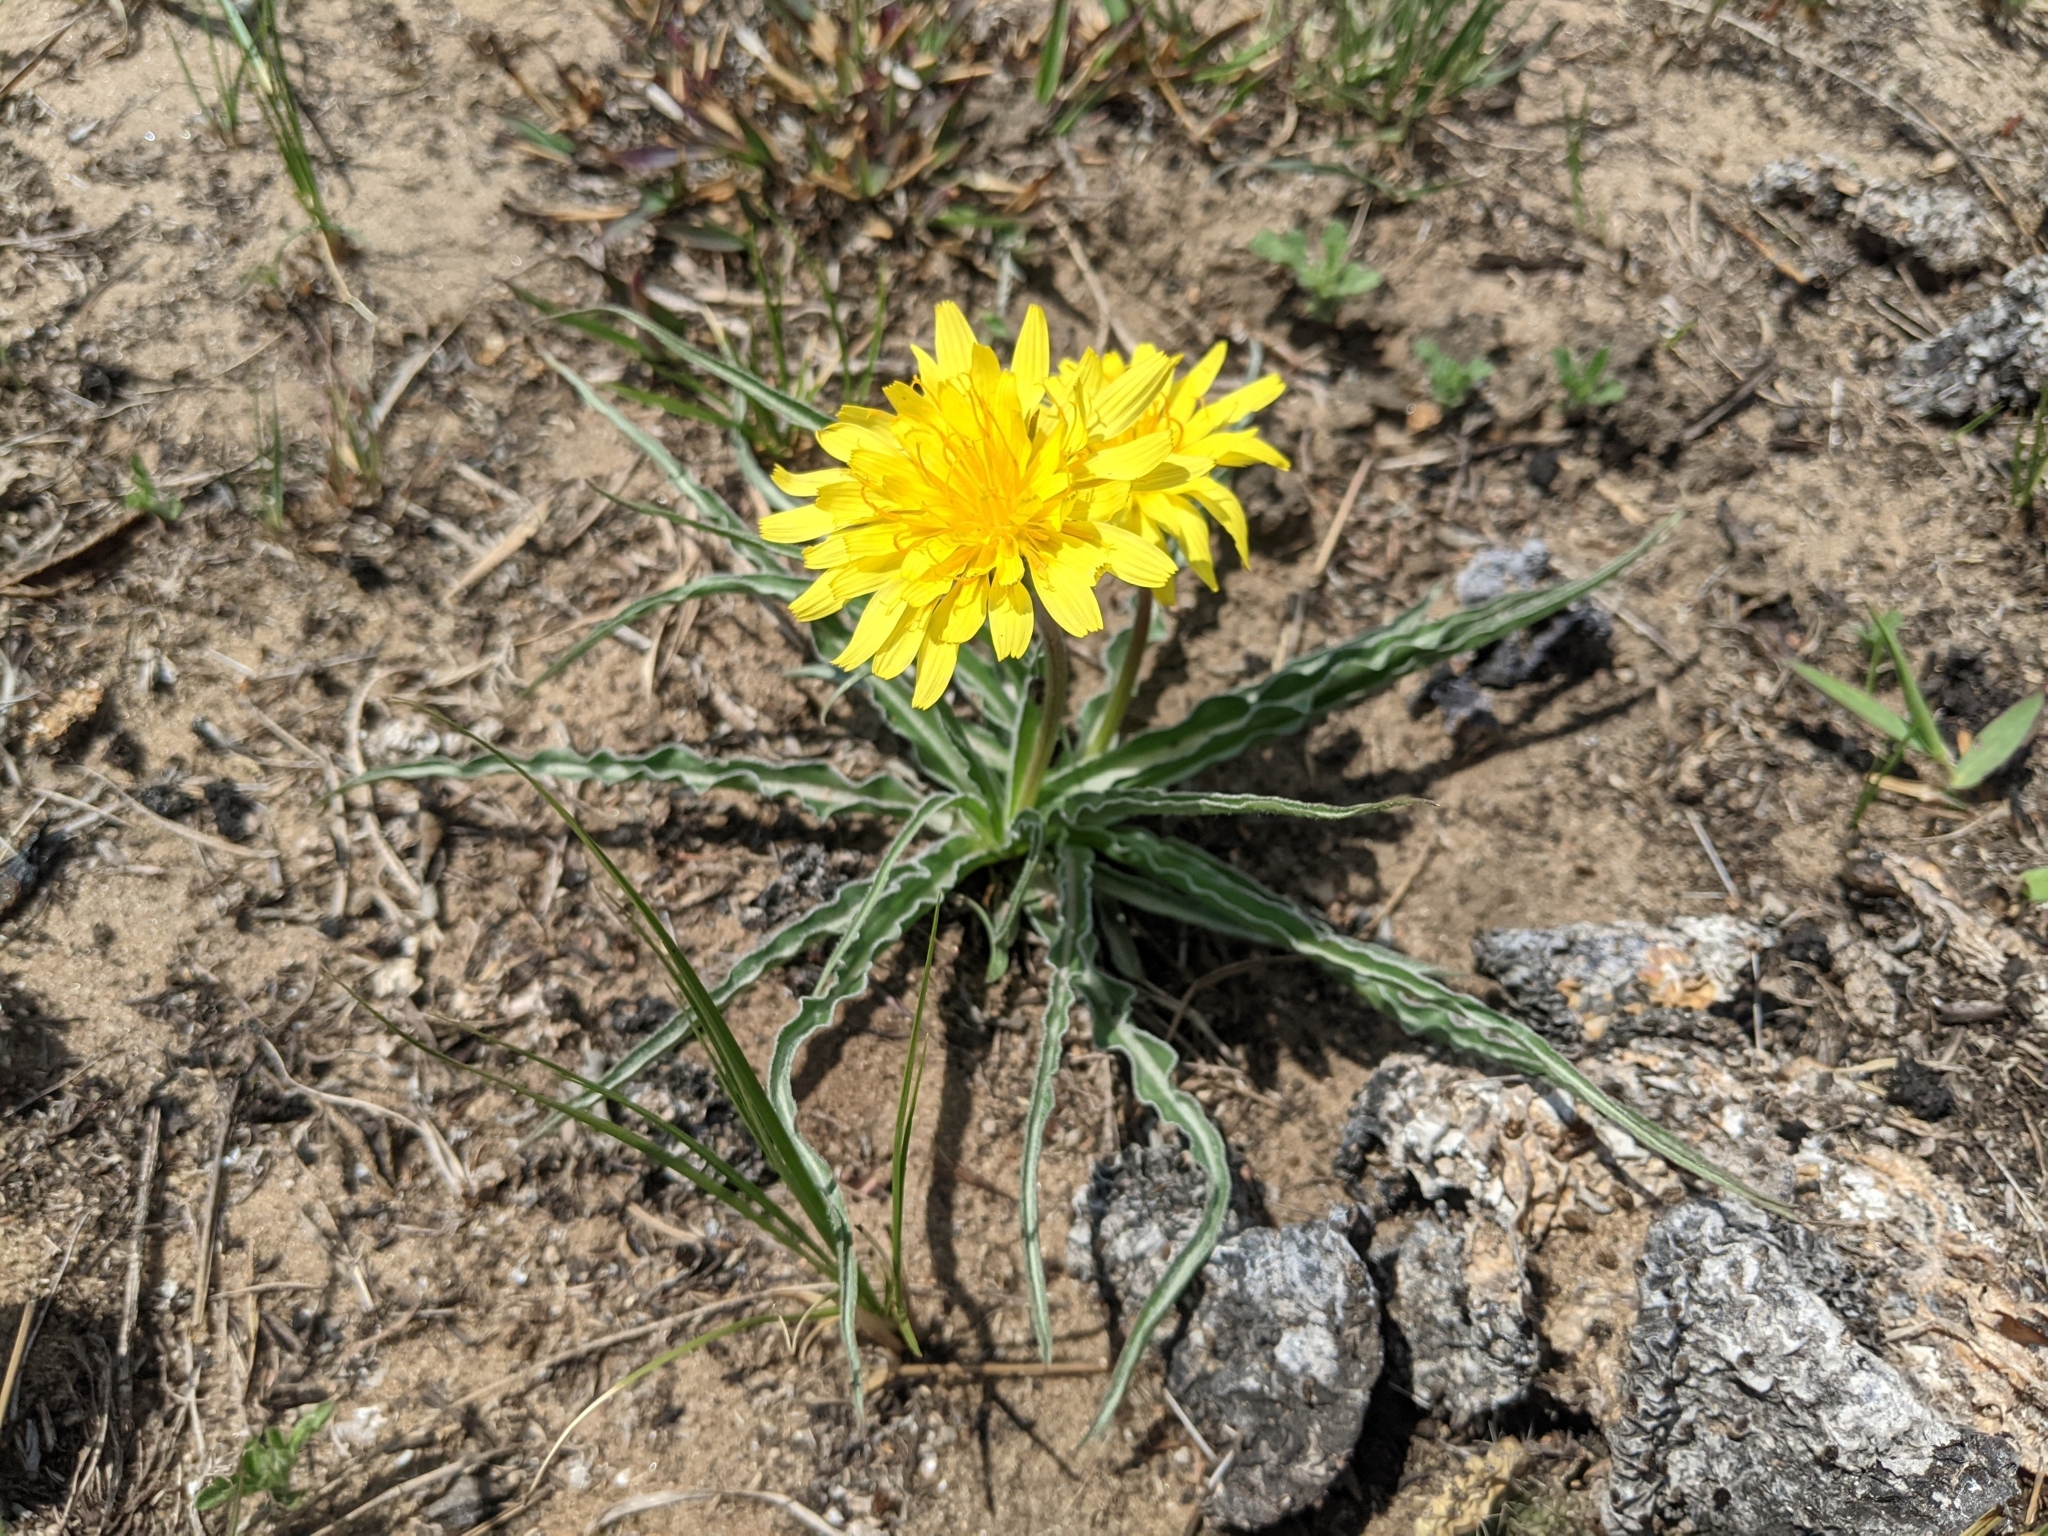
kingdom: Plantae
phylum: Tracheophyta
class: Magnoliopsida
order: Asterales
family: Asteraceae
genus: Microseris
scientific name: Microseris cuspidata
